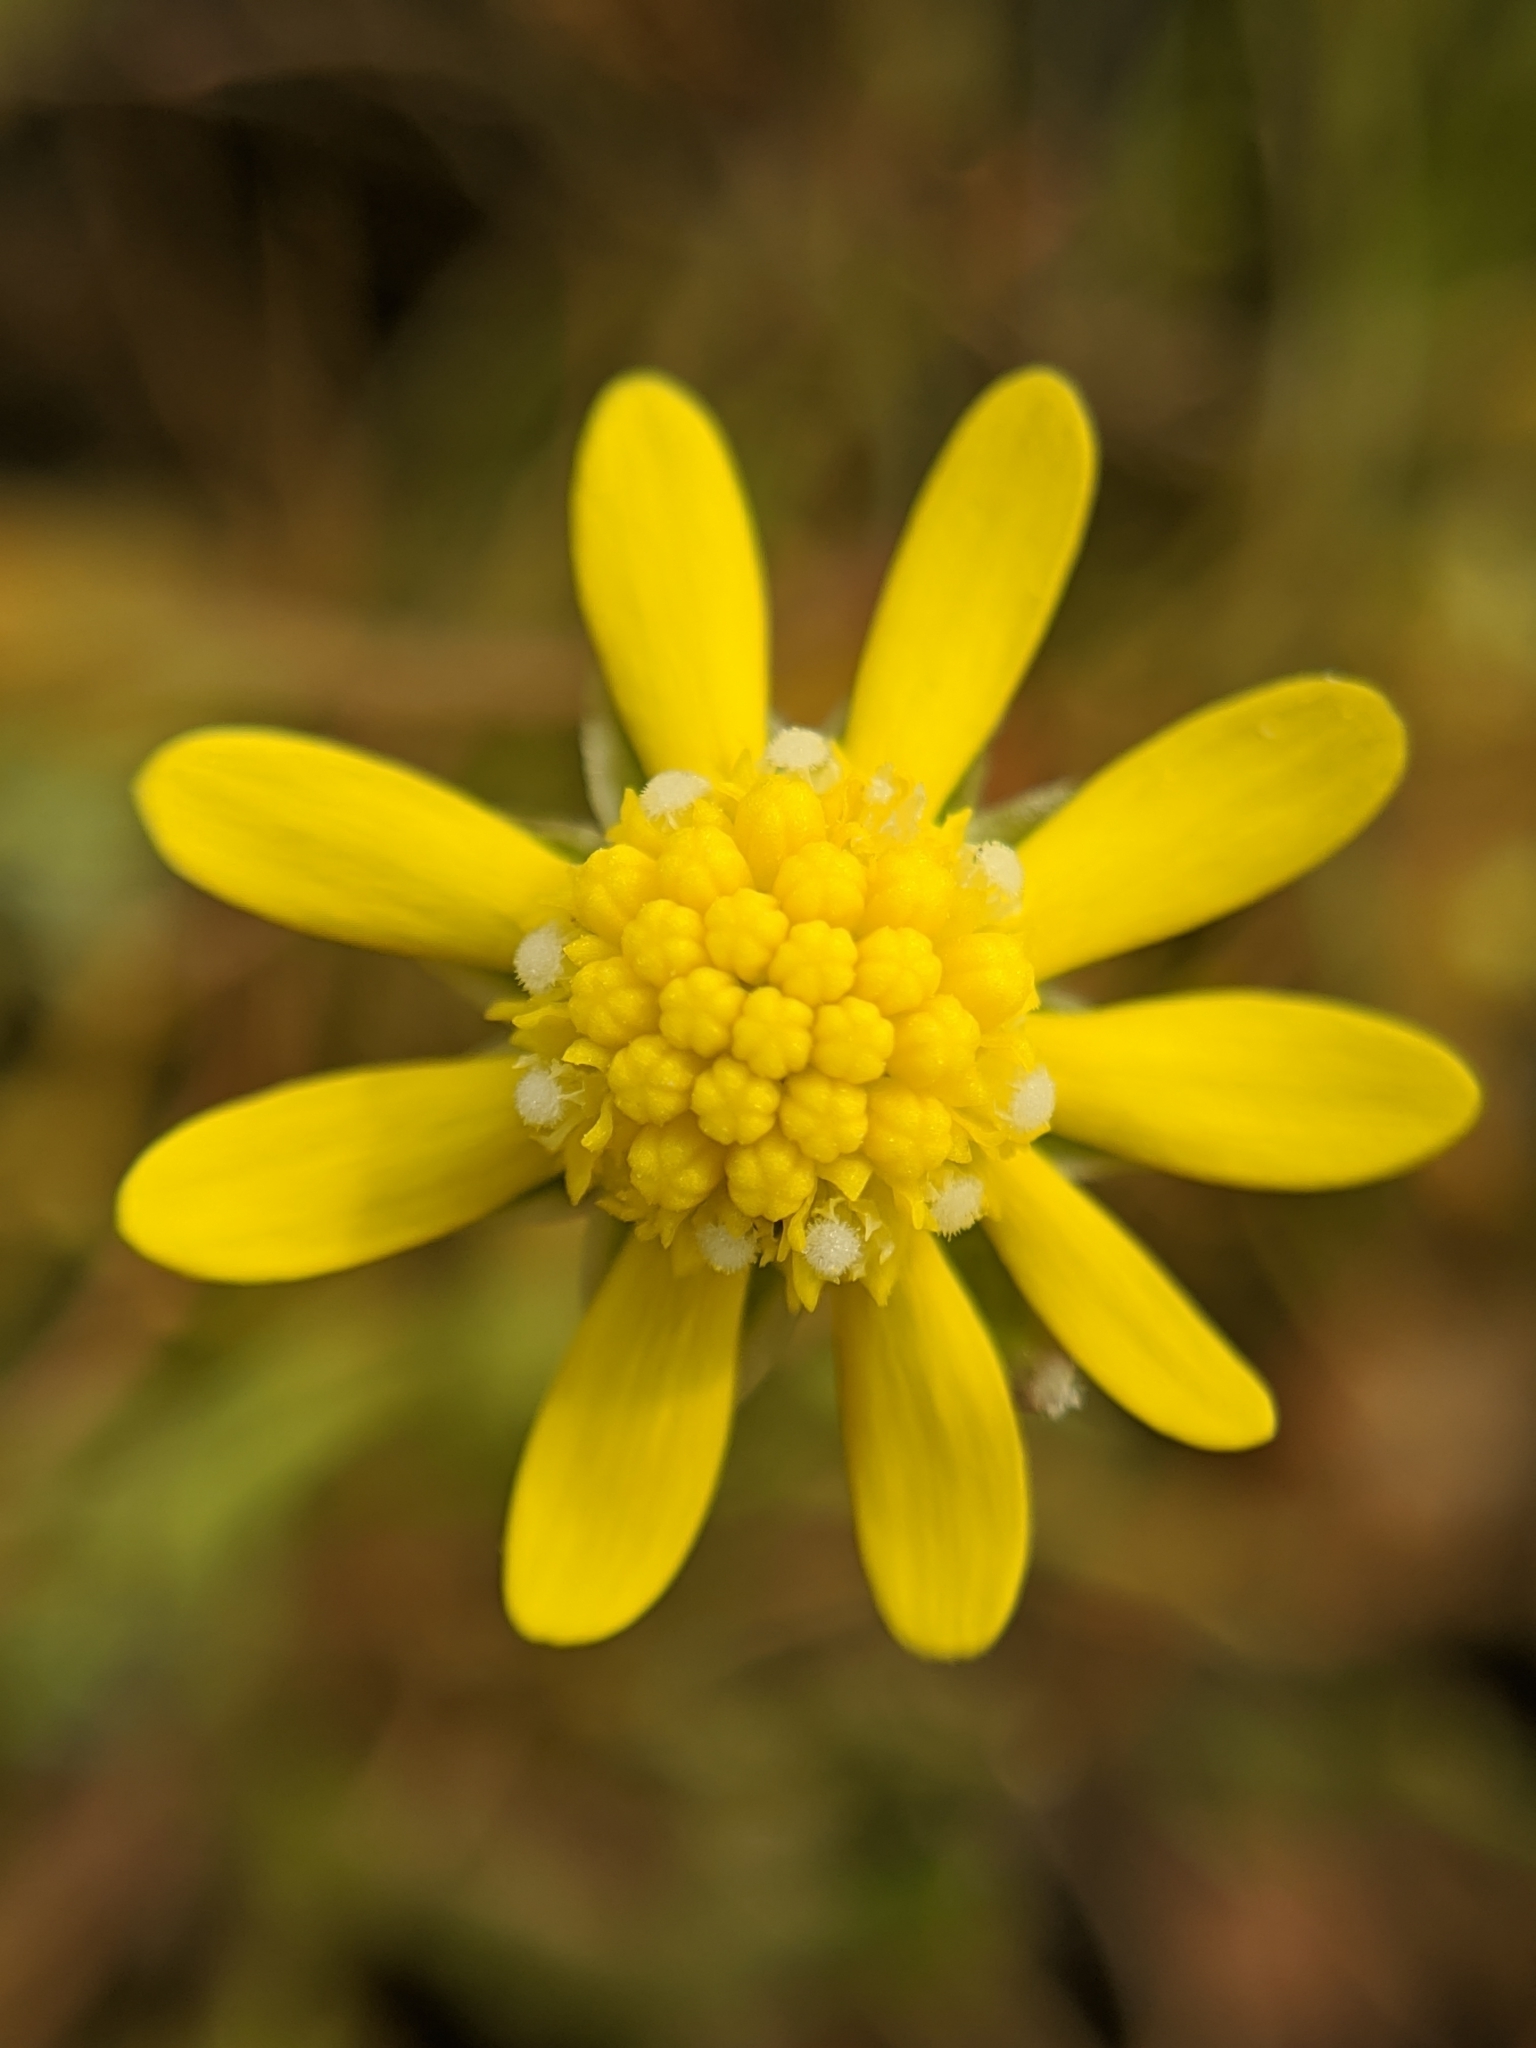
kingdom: Plantae
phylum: Tracheophyta
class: Magnoliopsida
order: Asterales
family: Asteraceae
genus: Blennosperma
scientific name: Blennosperma nanum
